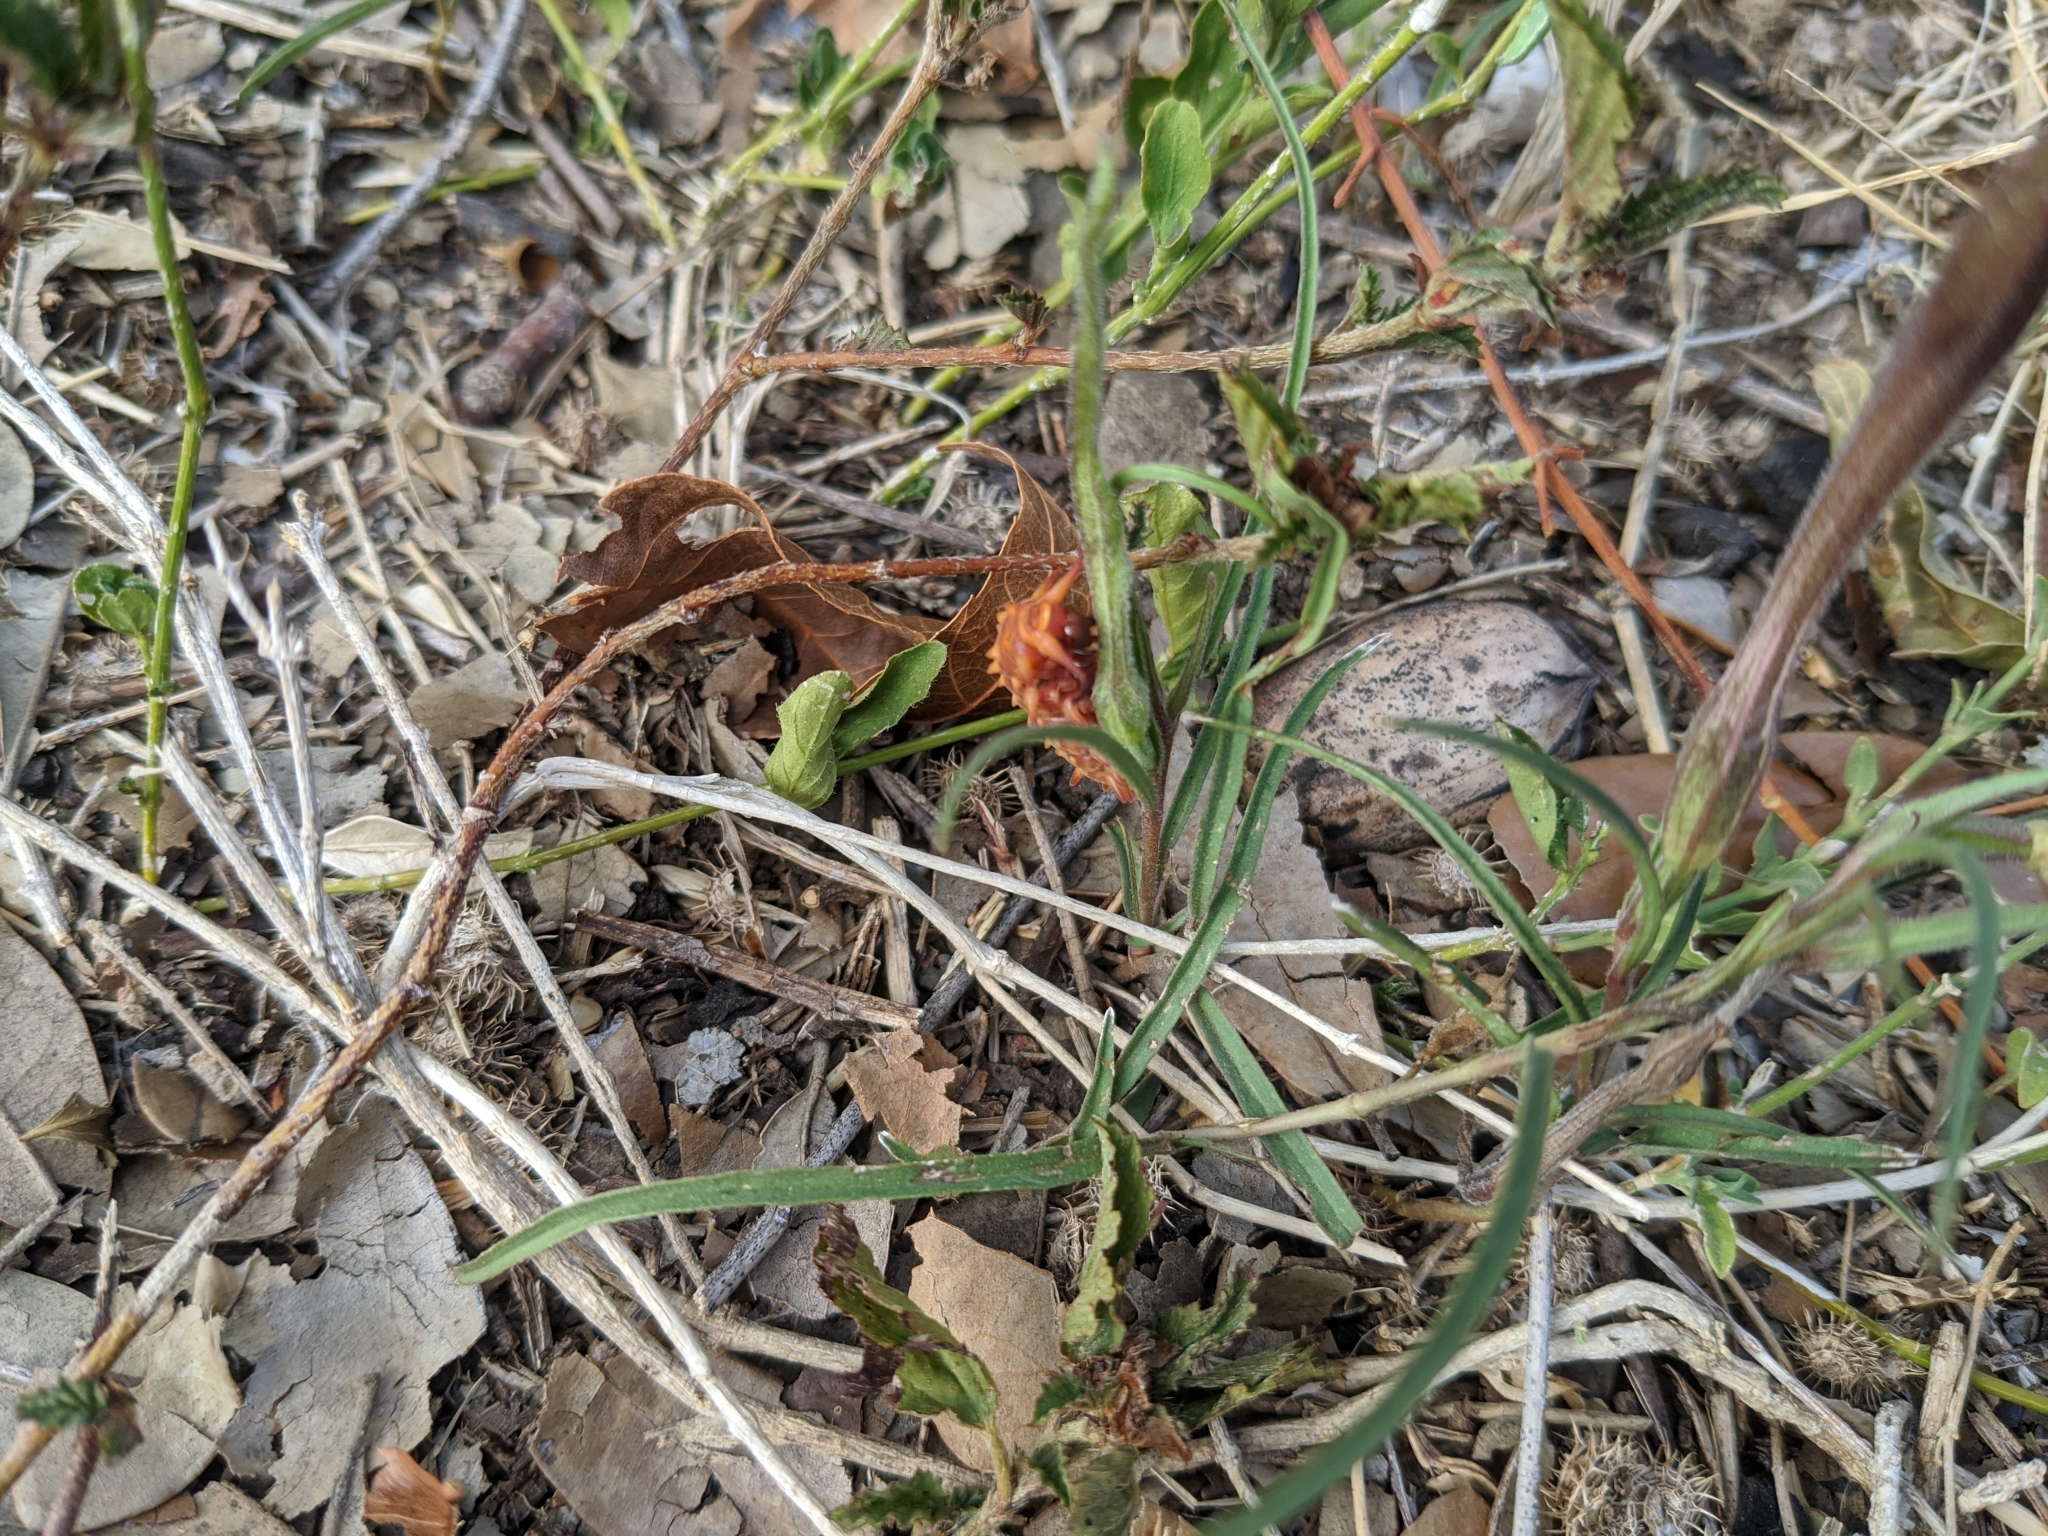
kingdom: Animalia
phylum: Arthropoda
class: Insecta
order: Lepidoptera
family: Papilionidae
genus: Battus
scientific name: Battus philenor
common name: Pipevine swallowtail
